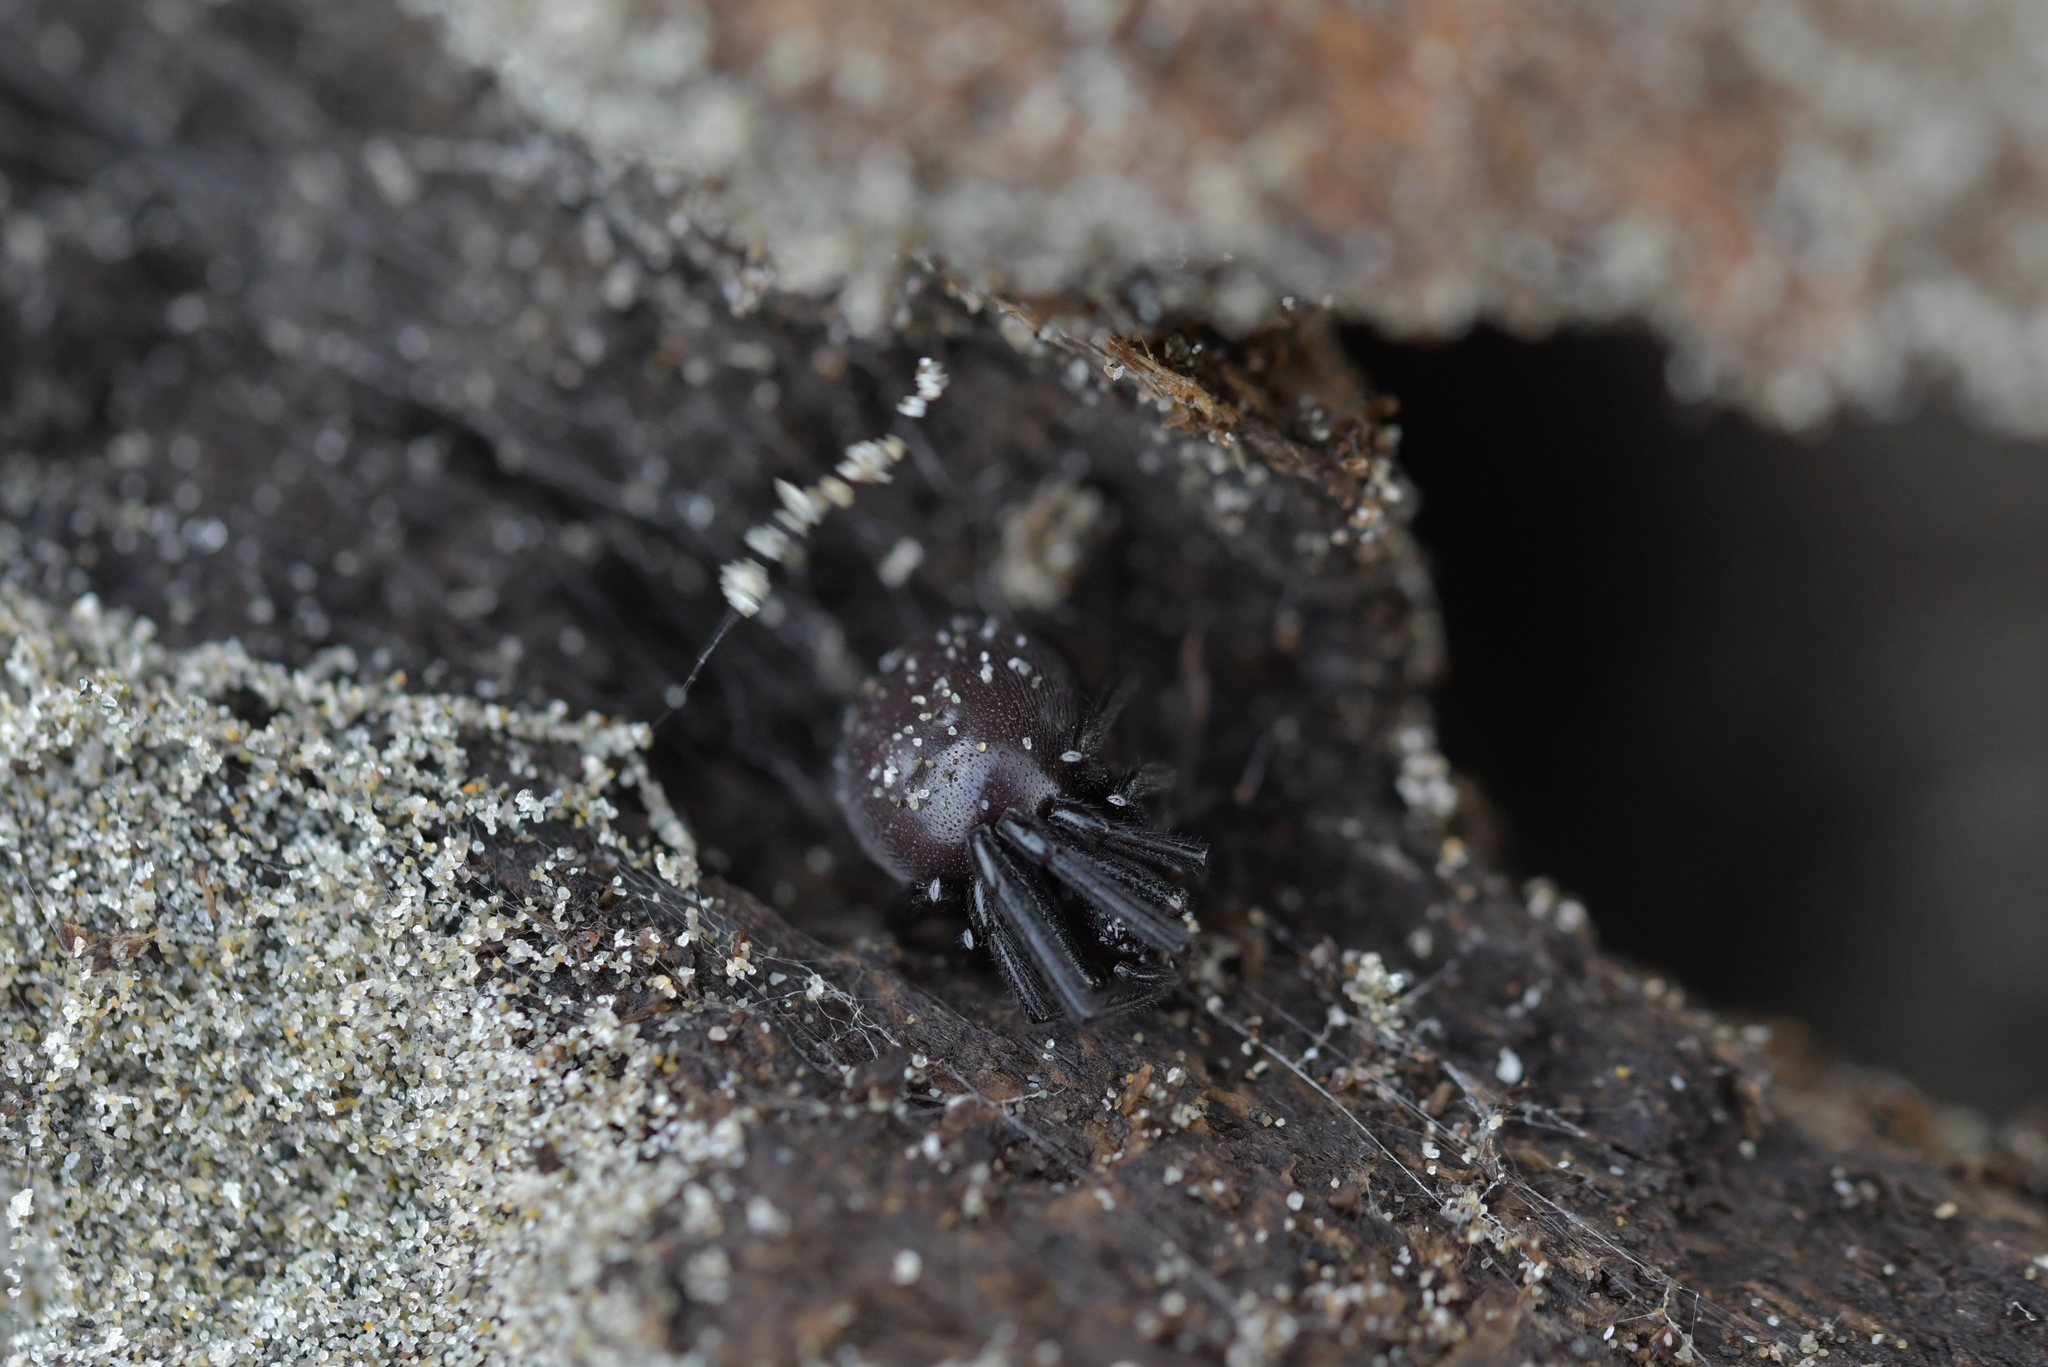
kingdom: Animalia
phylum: Arthropoda
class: Arachnida
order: Araneae
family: Theridiidae
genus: Steatoda
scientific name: Steatoda capensis
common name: Cobweb weaver
